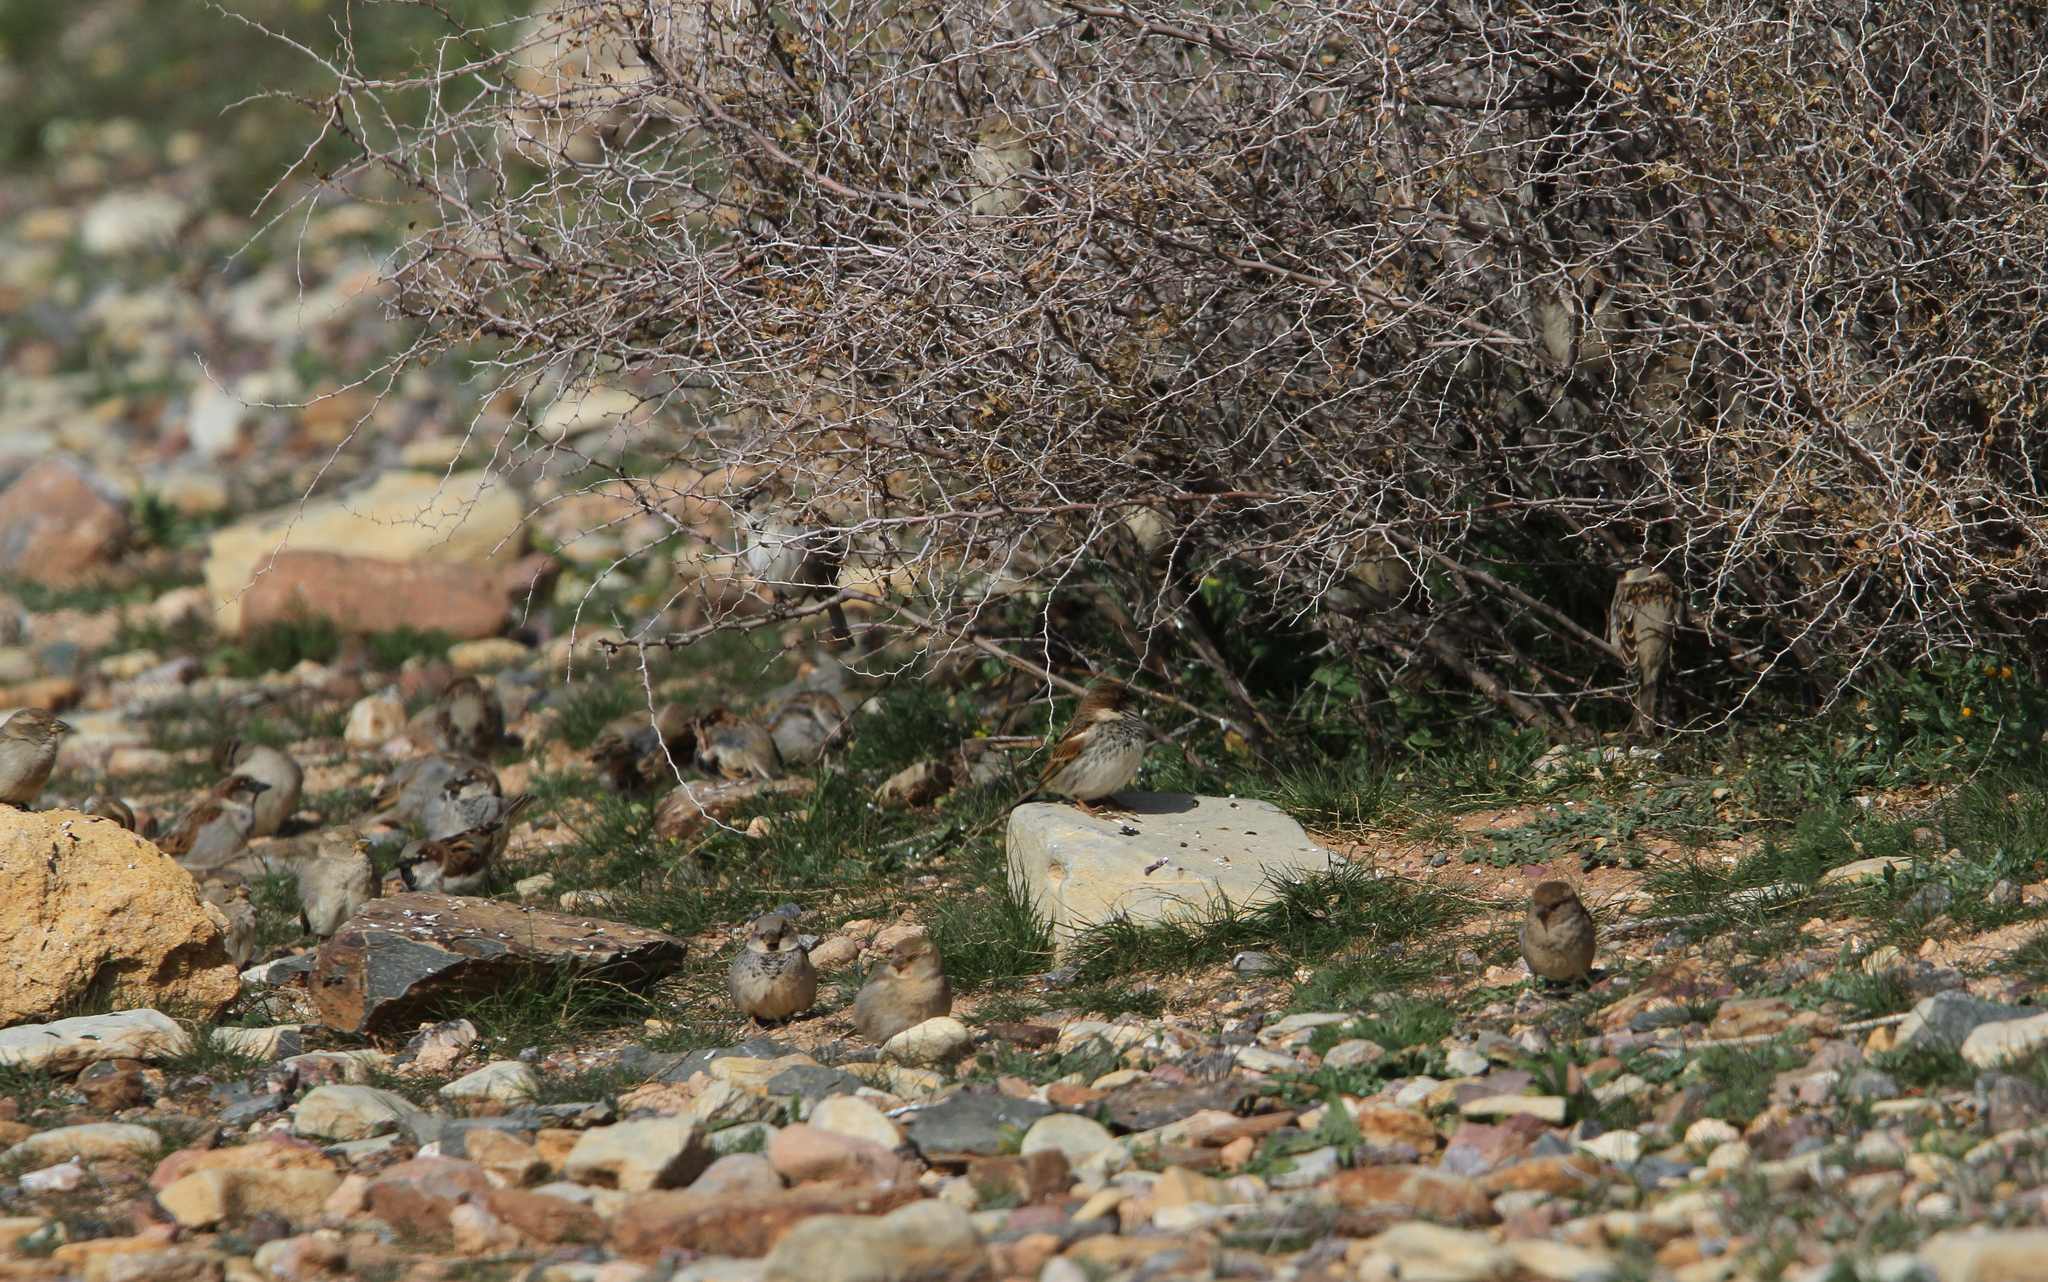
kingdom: Animalia
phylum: Chordata
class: Aves
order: Passeriformes
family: Passeridae
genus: Passer
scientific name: Passer domesticus
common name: House sparrow
